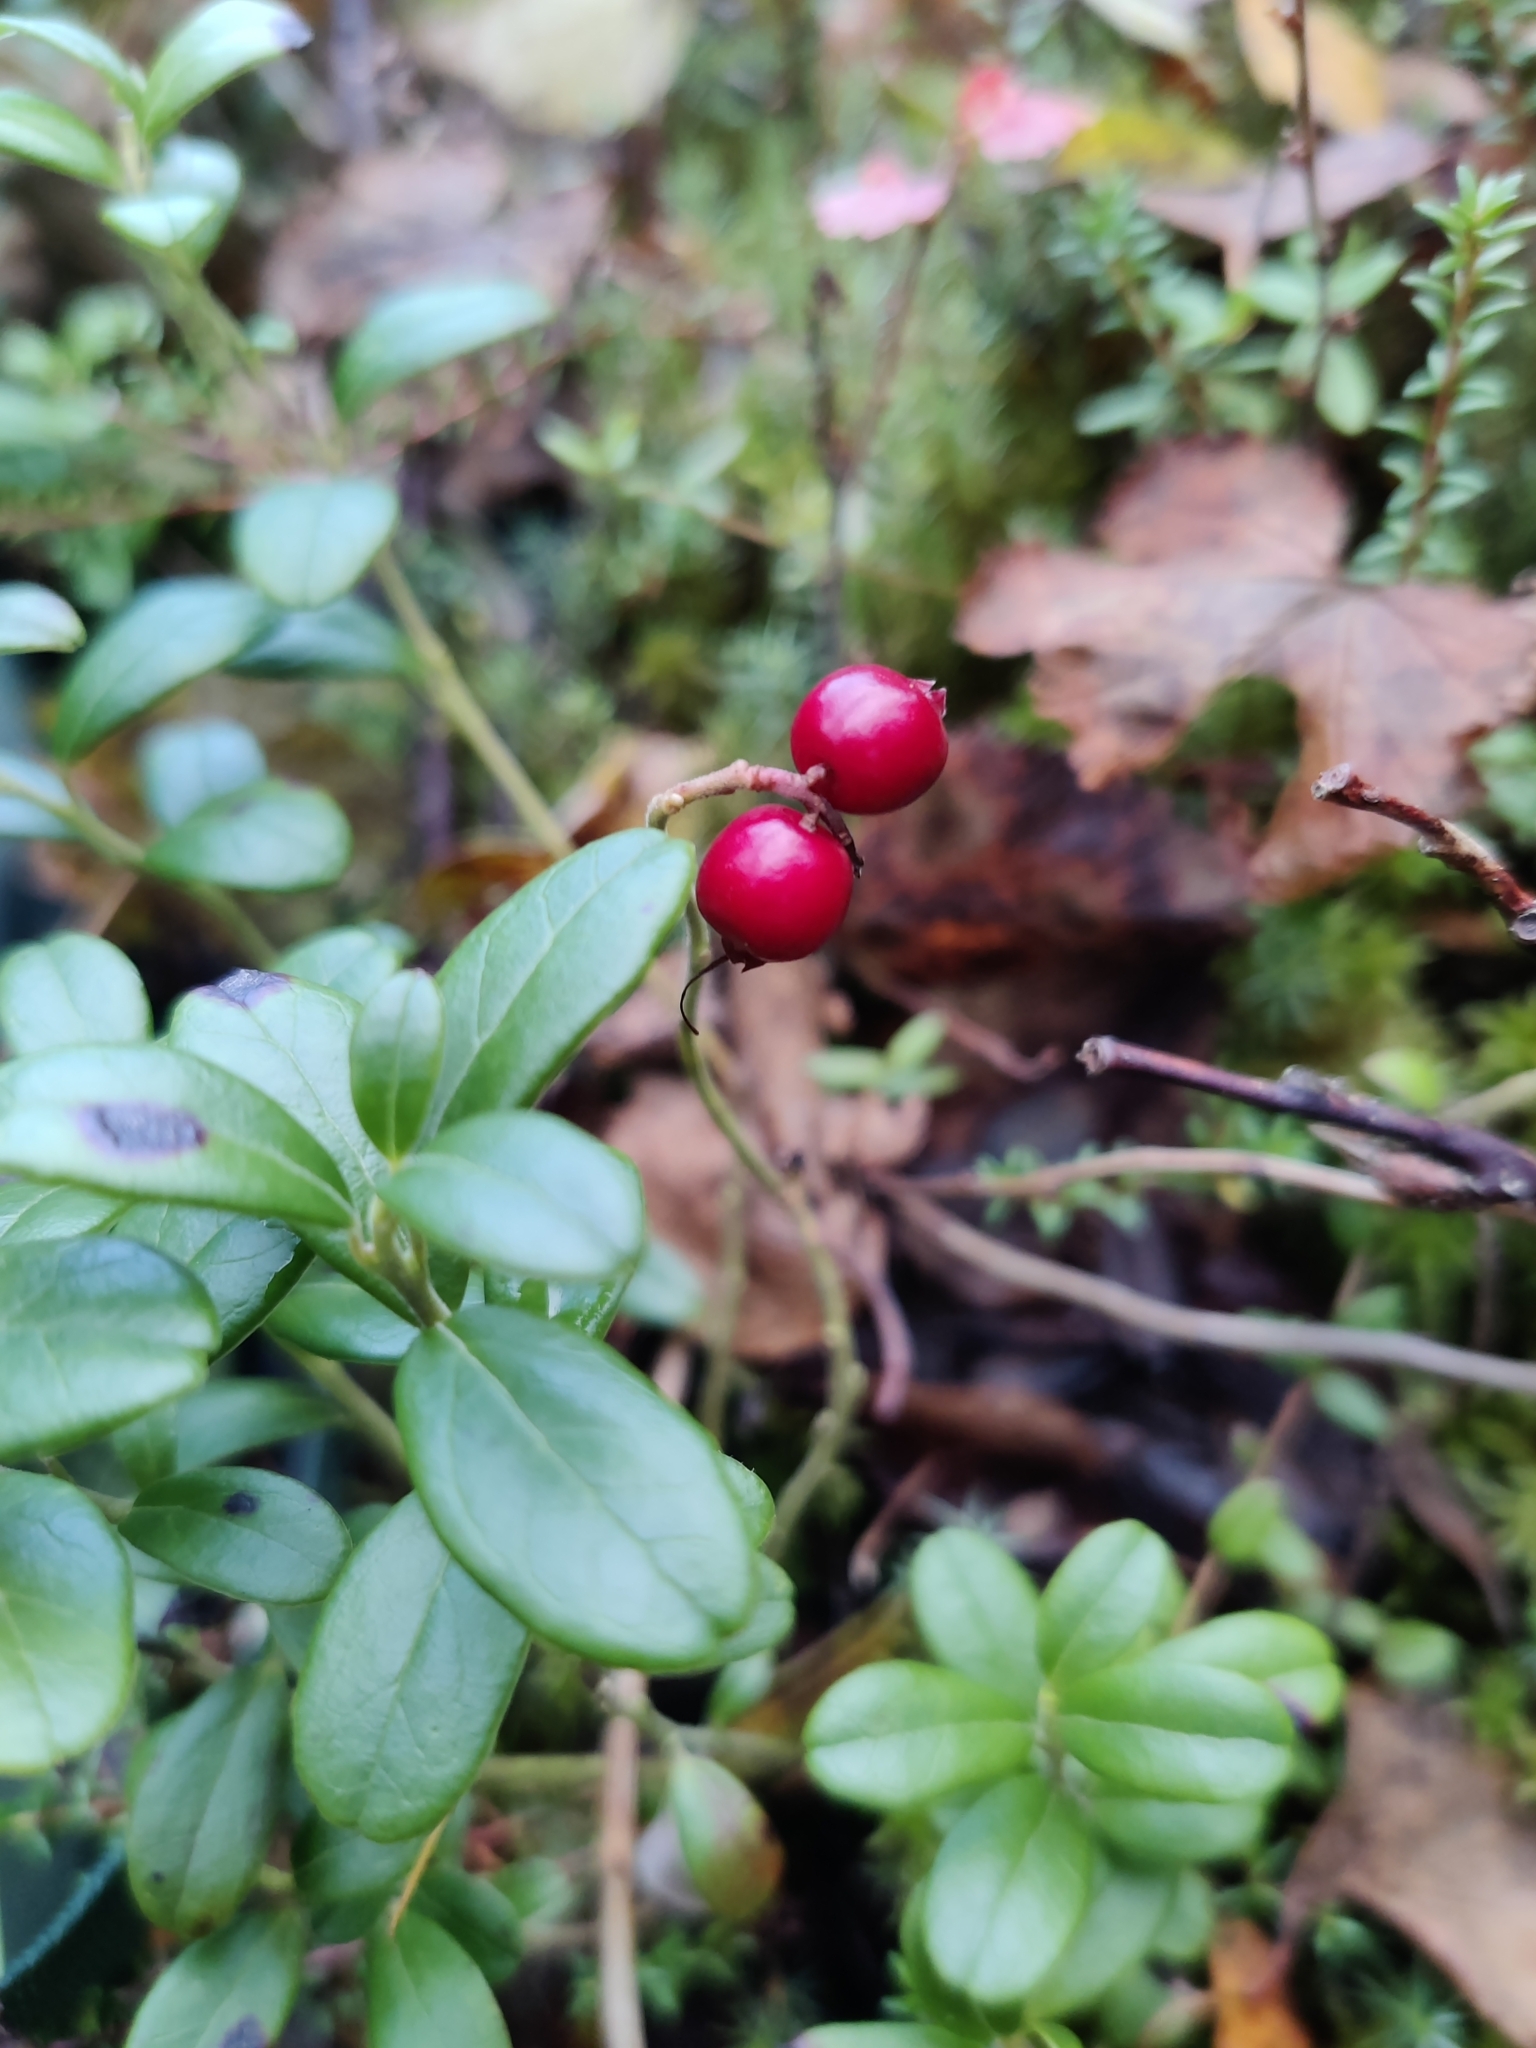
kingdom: Plantae
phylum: Tracheophyta
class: Magnoliopsida
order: Ericales
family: Ericaceae
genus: Vaccinium
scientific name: Vaccinium vitis-idaea
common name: Cowberry
